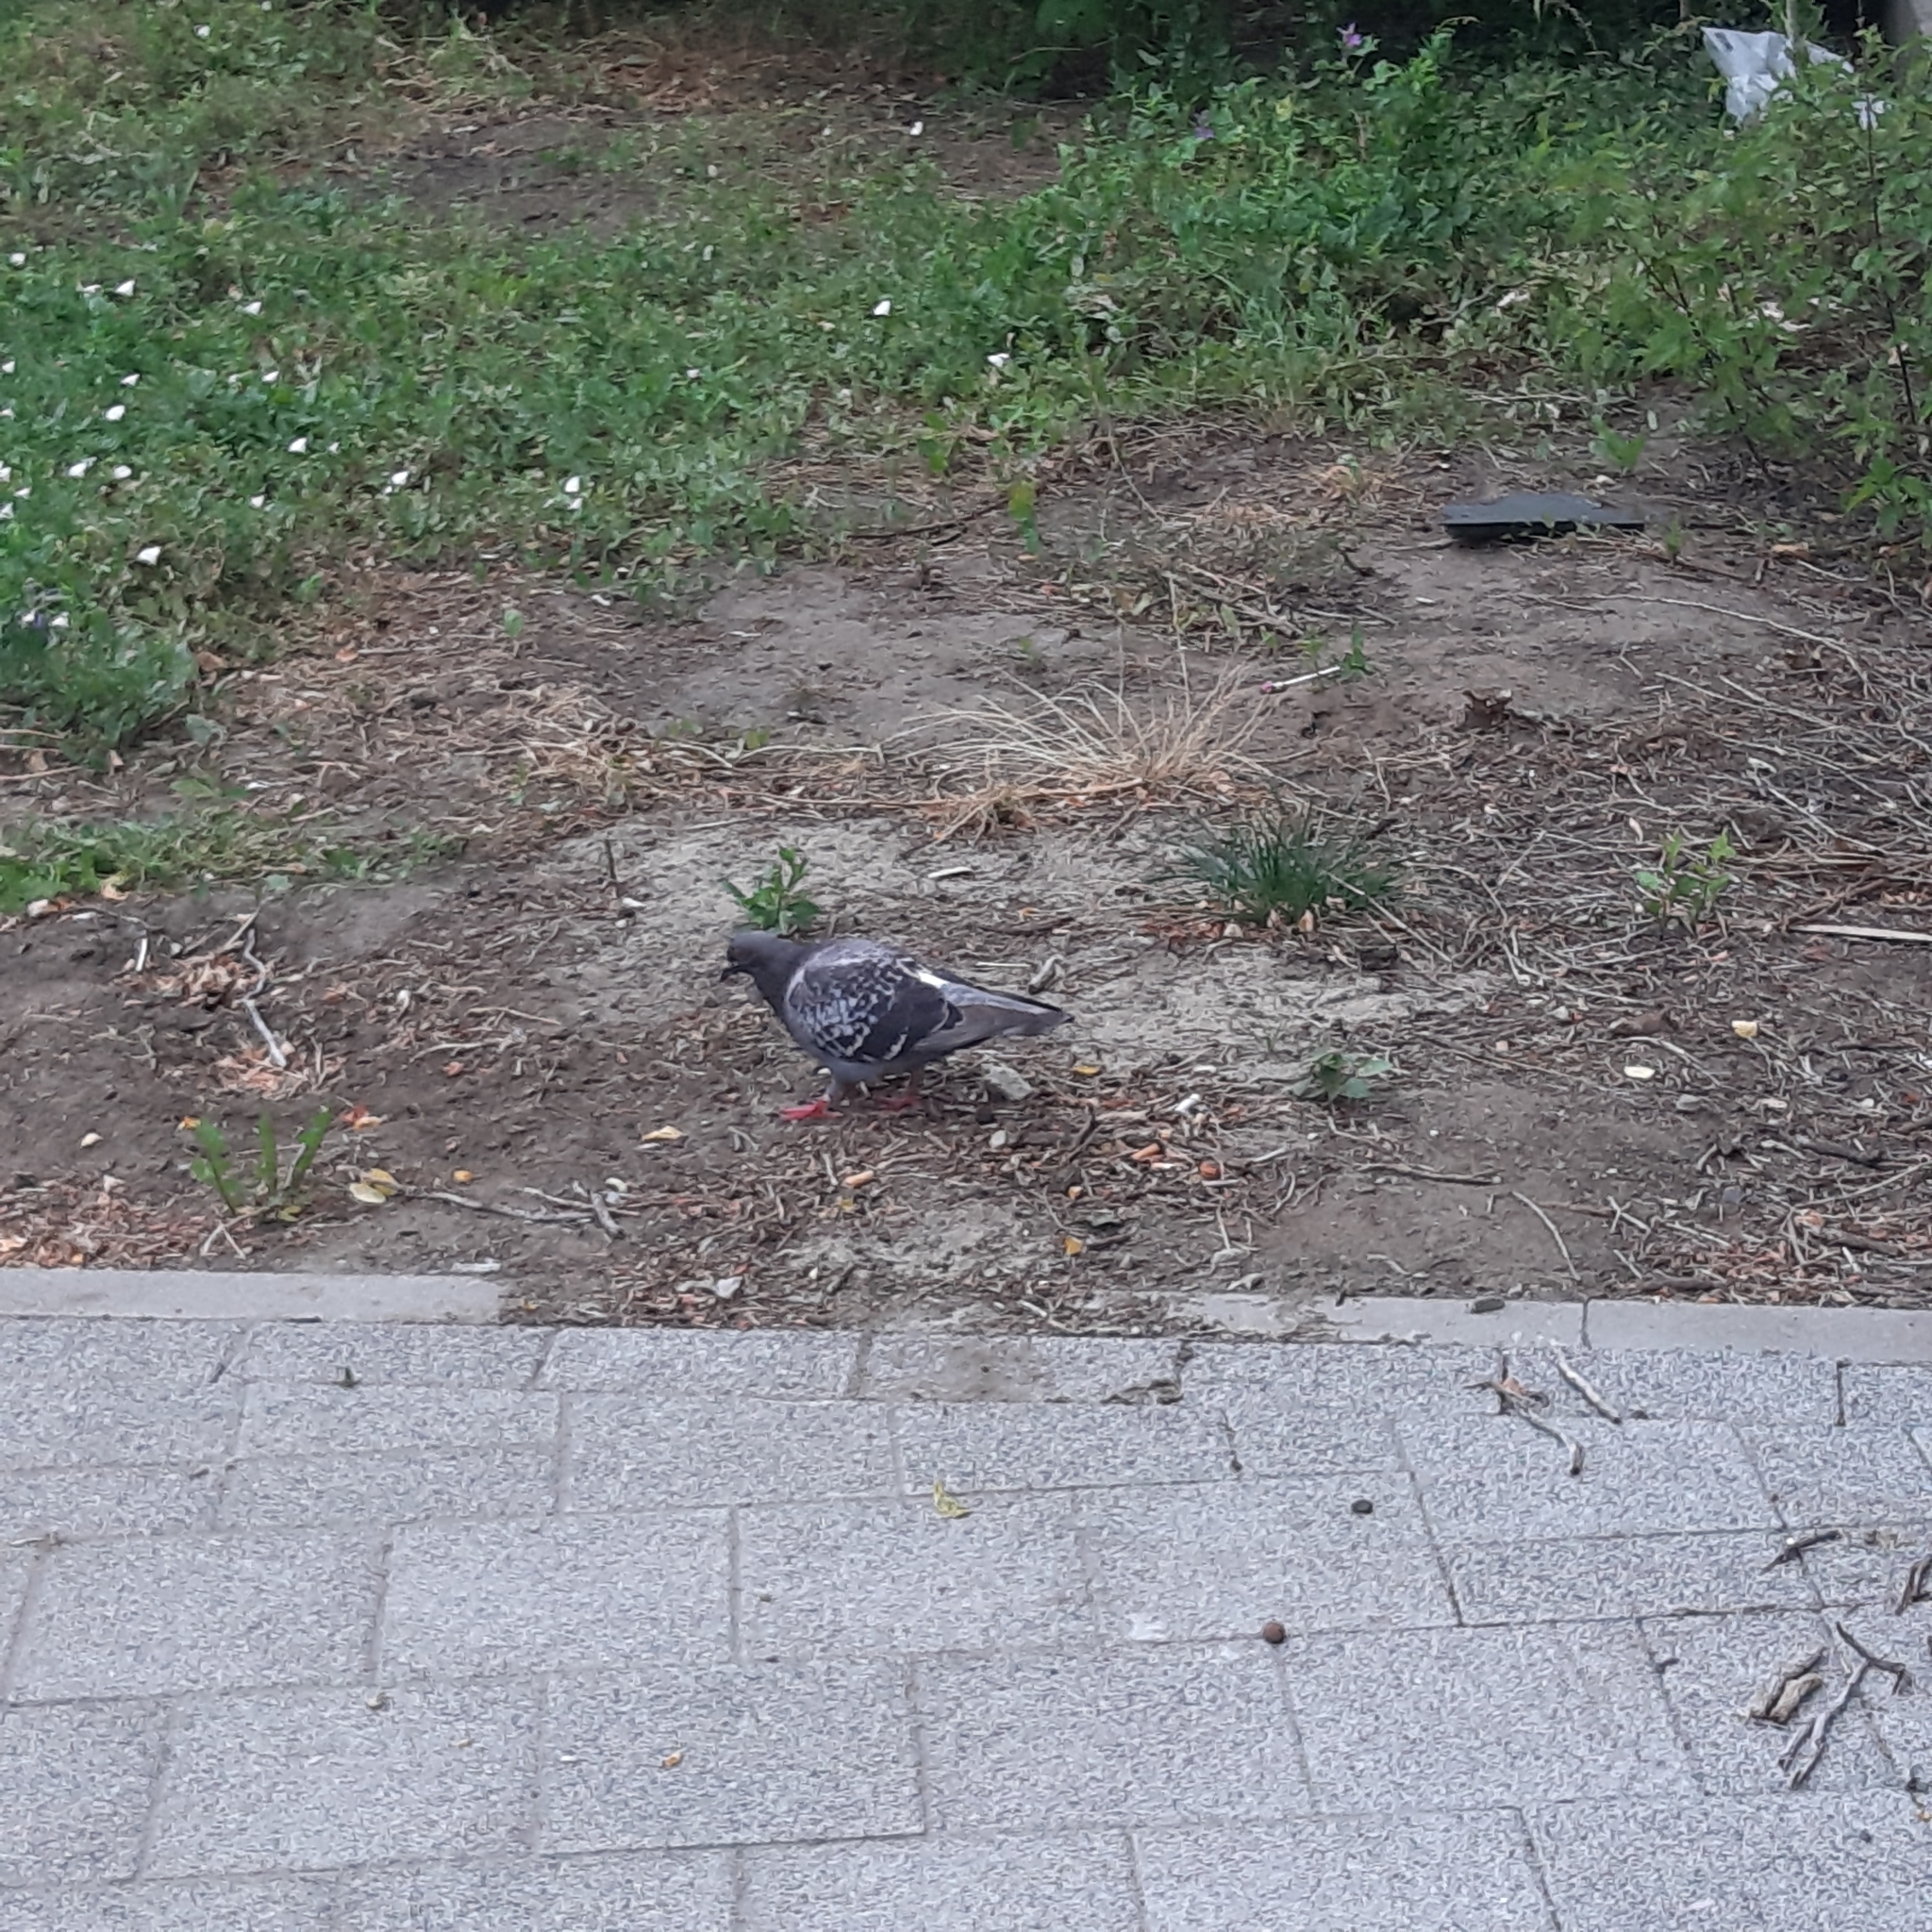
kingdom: Animalia
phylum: Chordata
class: Aves
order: Columbiformes
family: Columbidae
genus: Columba
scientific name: Columba livia
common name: Rock pigeon
